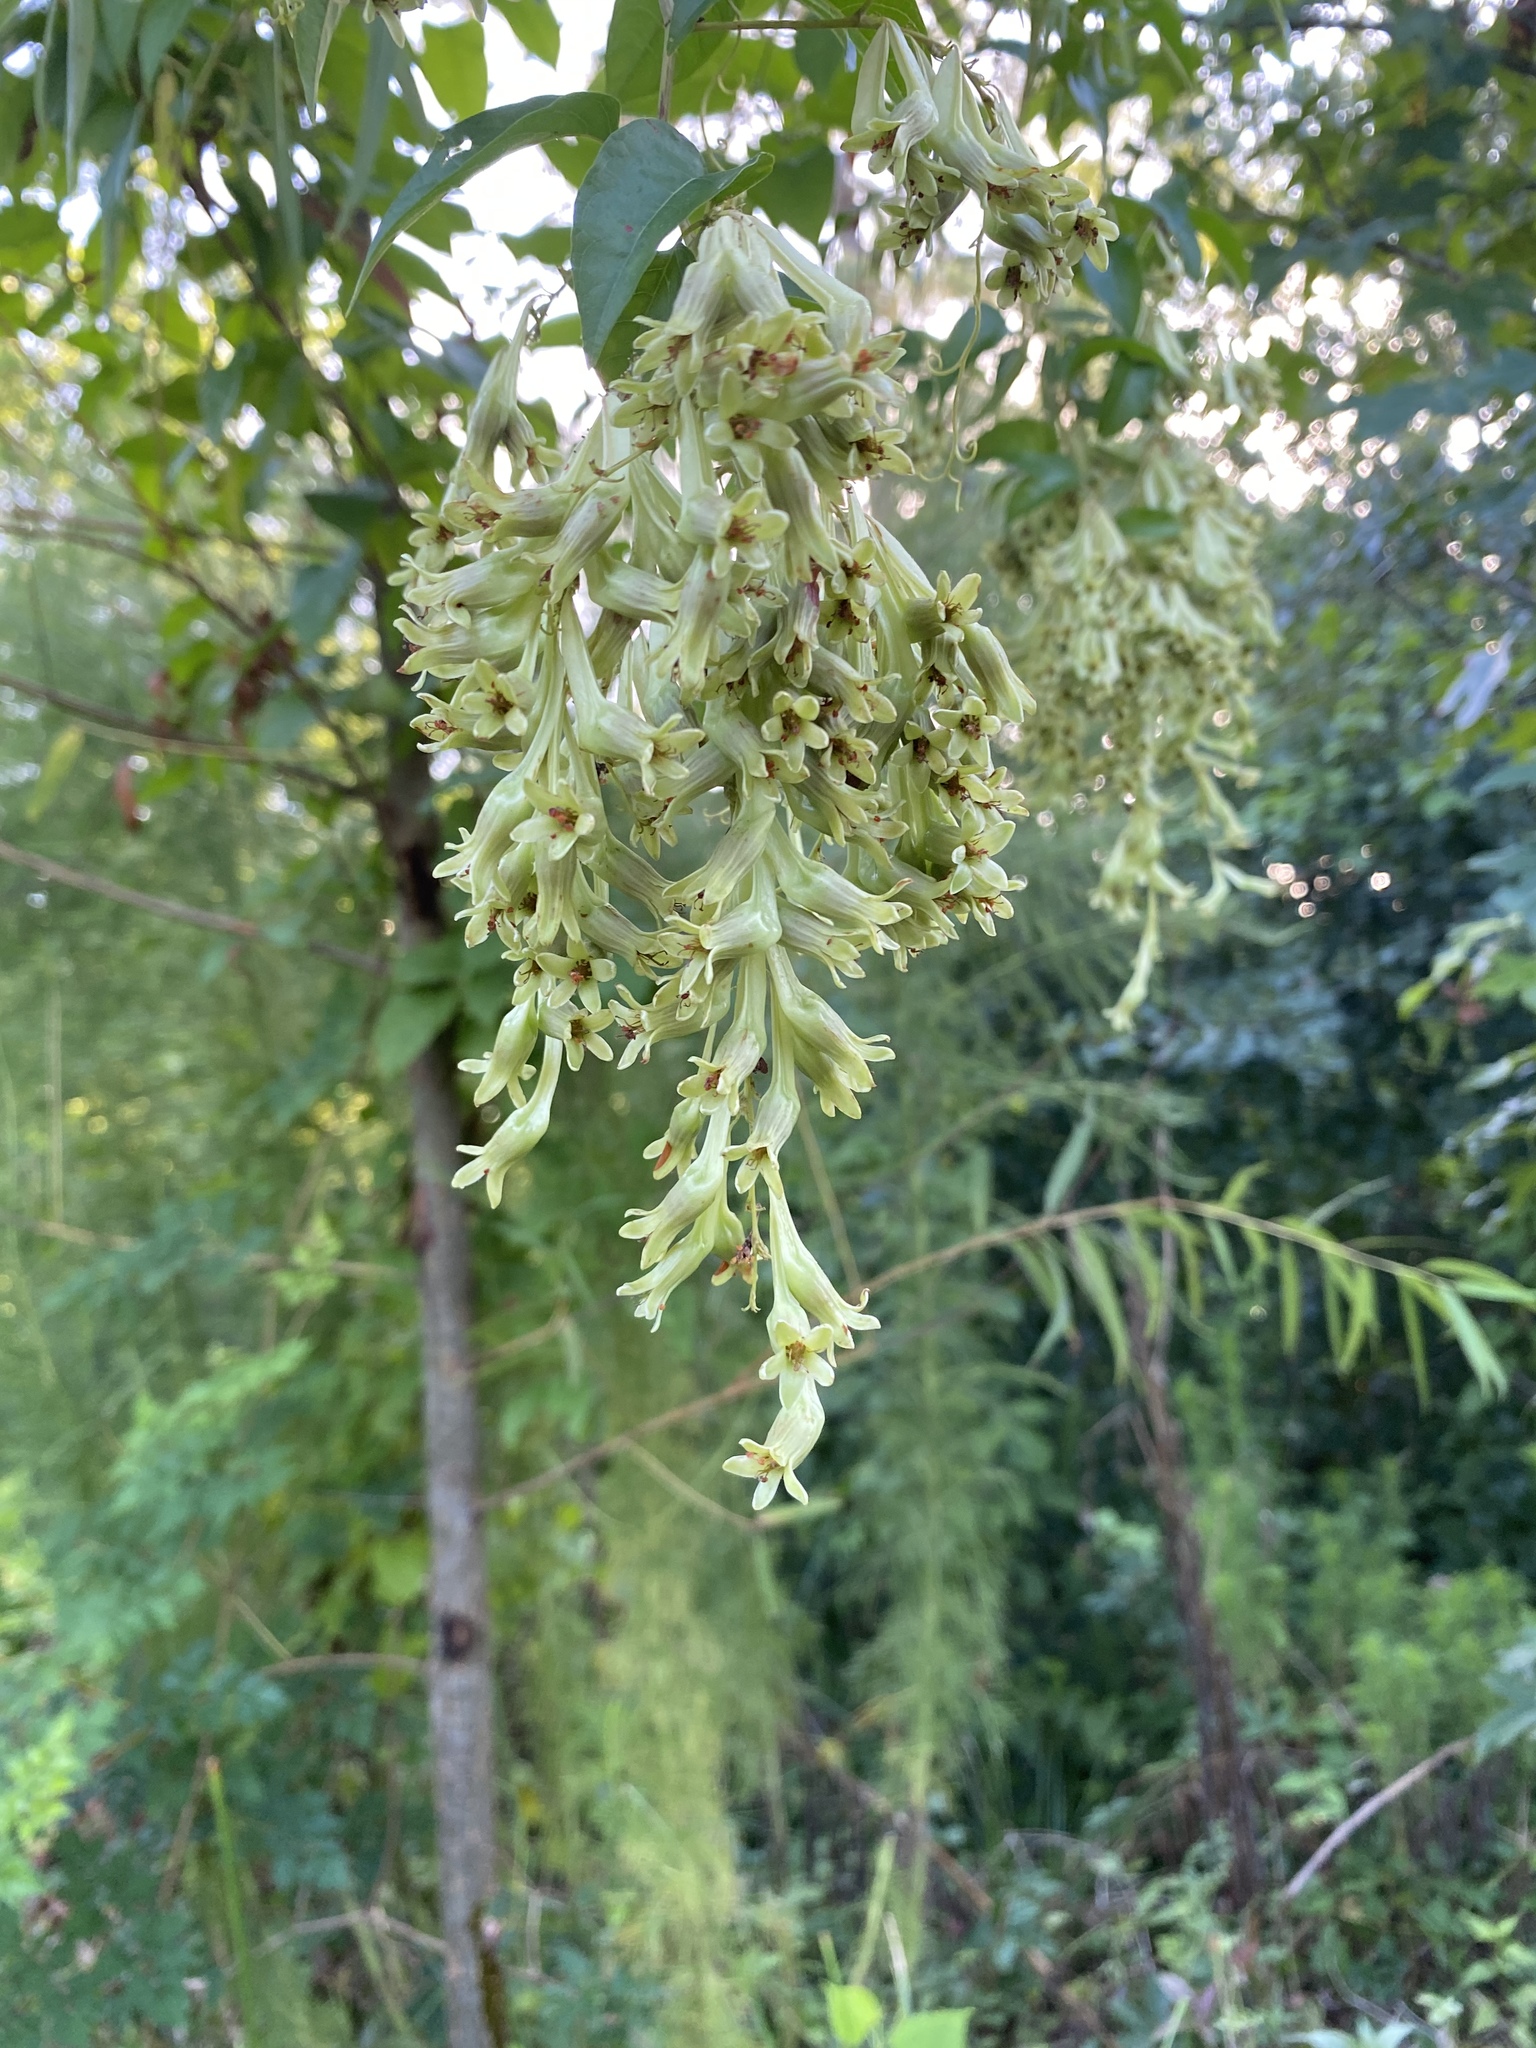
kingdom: Plantae
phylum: Tracheophyta
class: Magnoliopsida
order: Caryophyllales
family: Polygonaceae
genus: Brunnichia
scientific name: Brunnichia ovata
